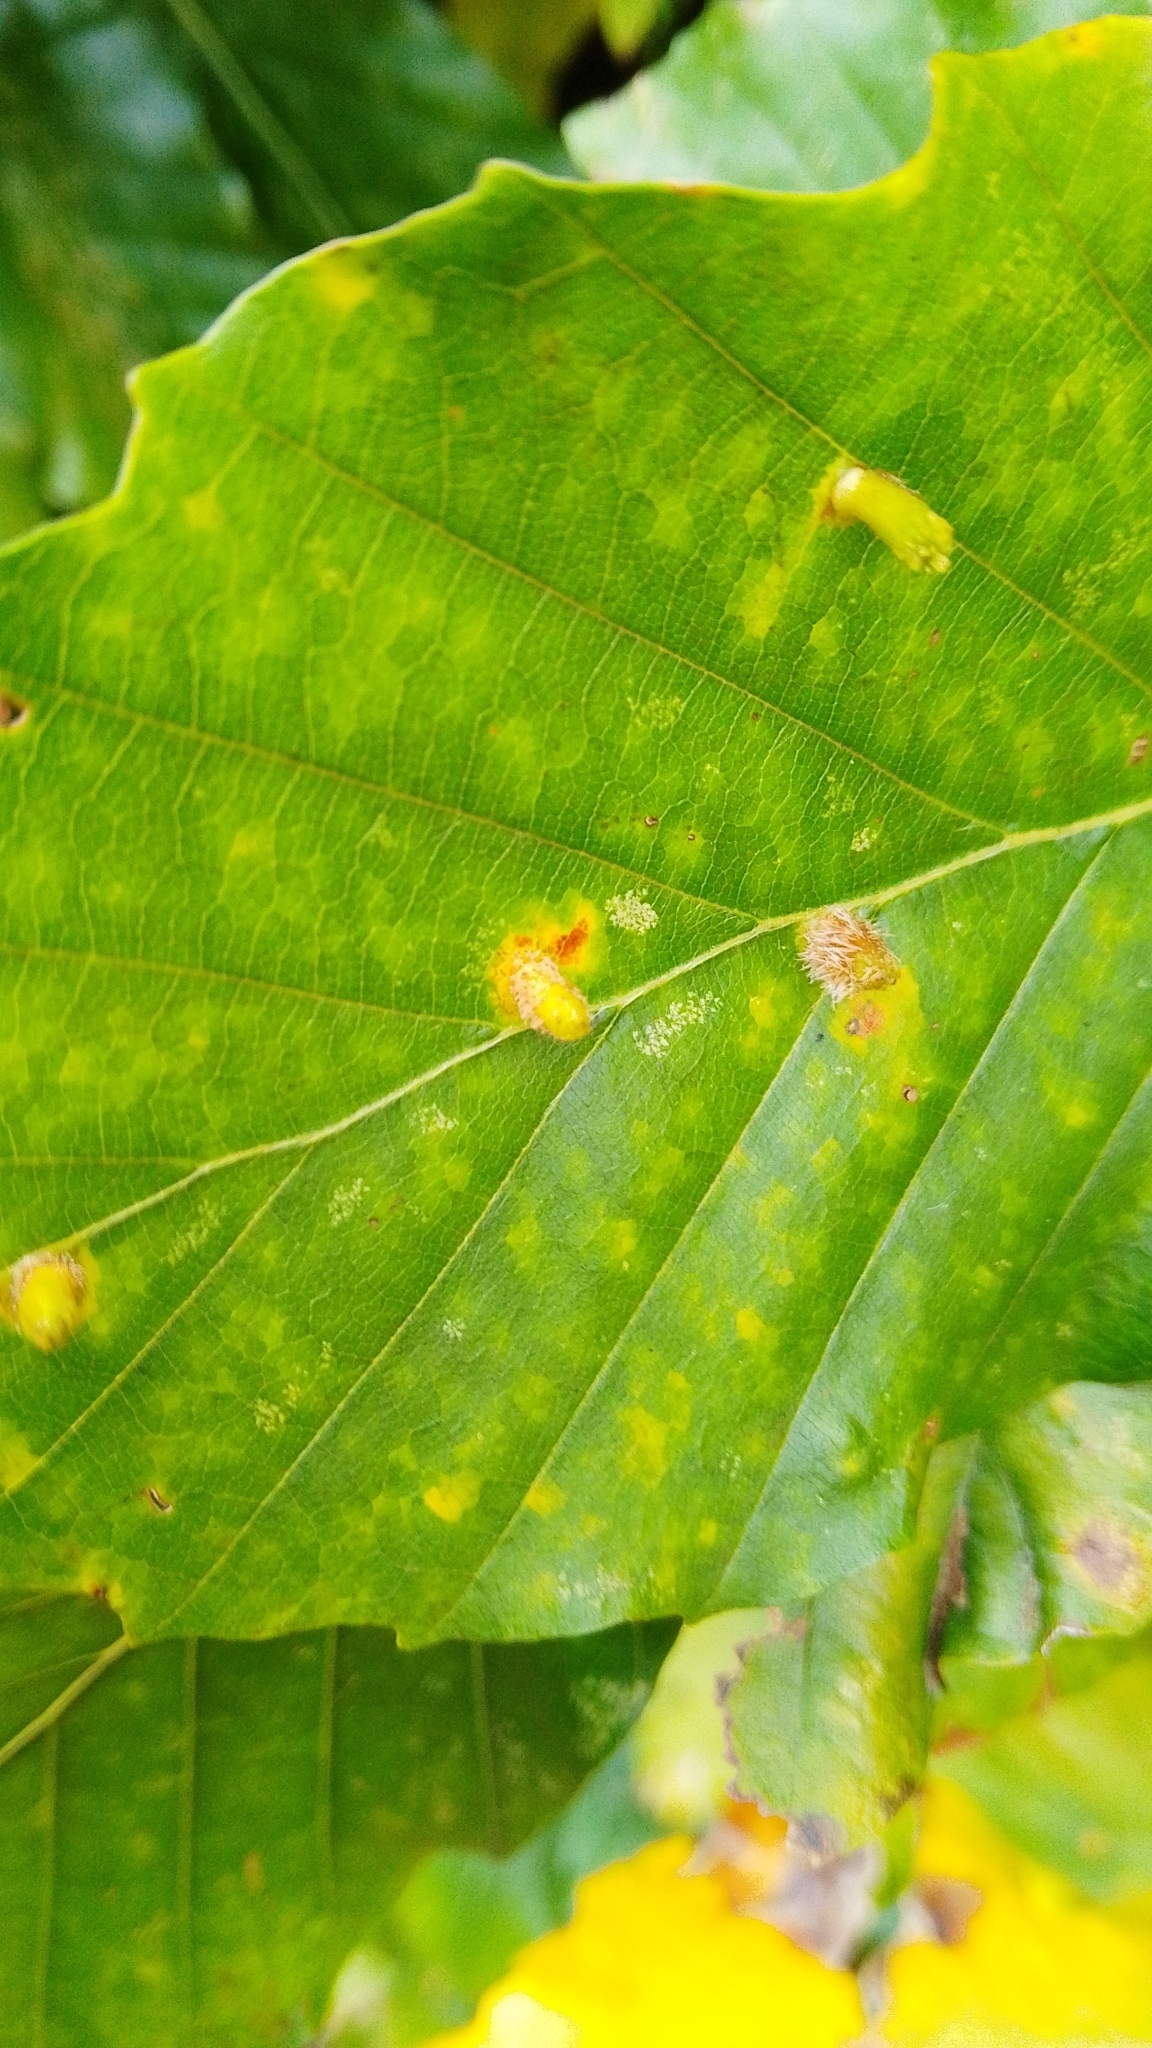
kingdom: Animalia
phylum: Arthropoda
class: Insecta
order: Diptera
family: Cecidomyiidae
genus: Hartigiola
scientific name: Hartigiola annulipes
